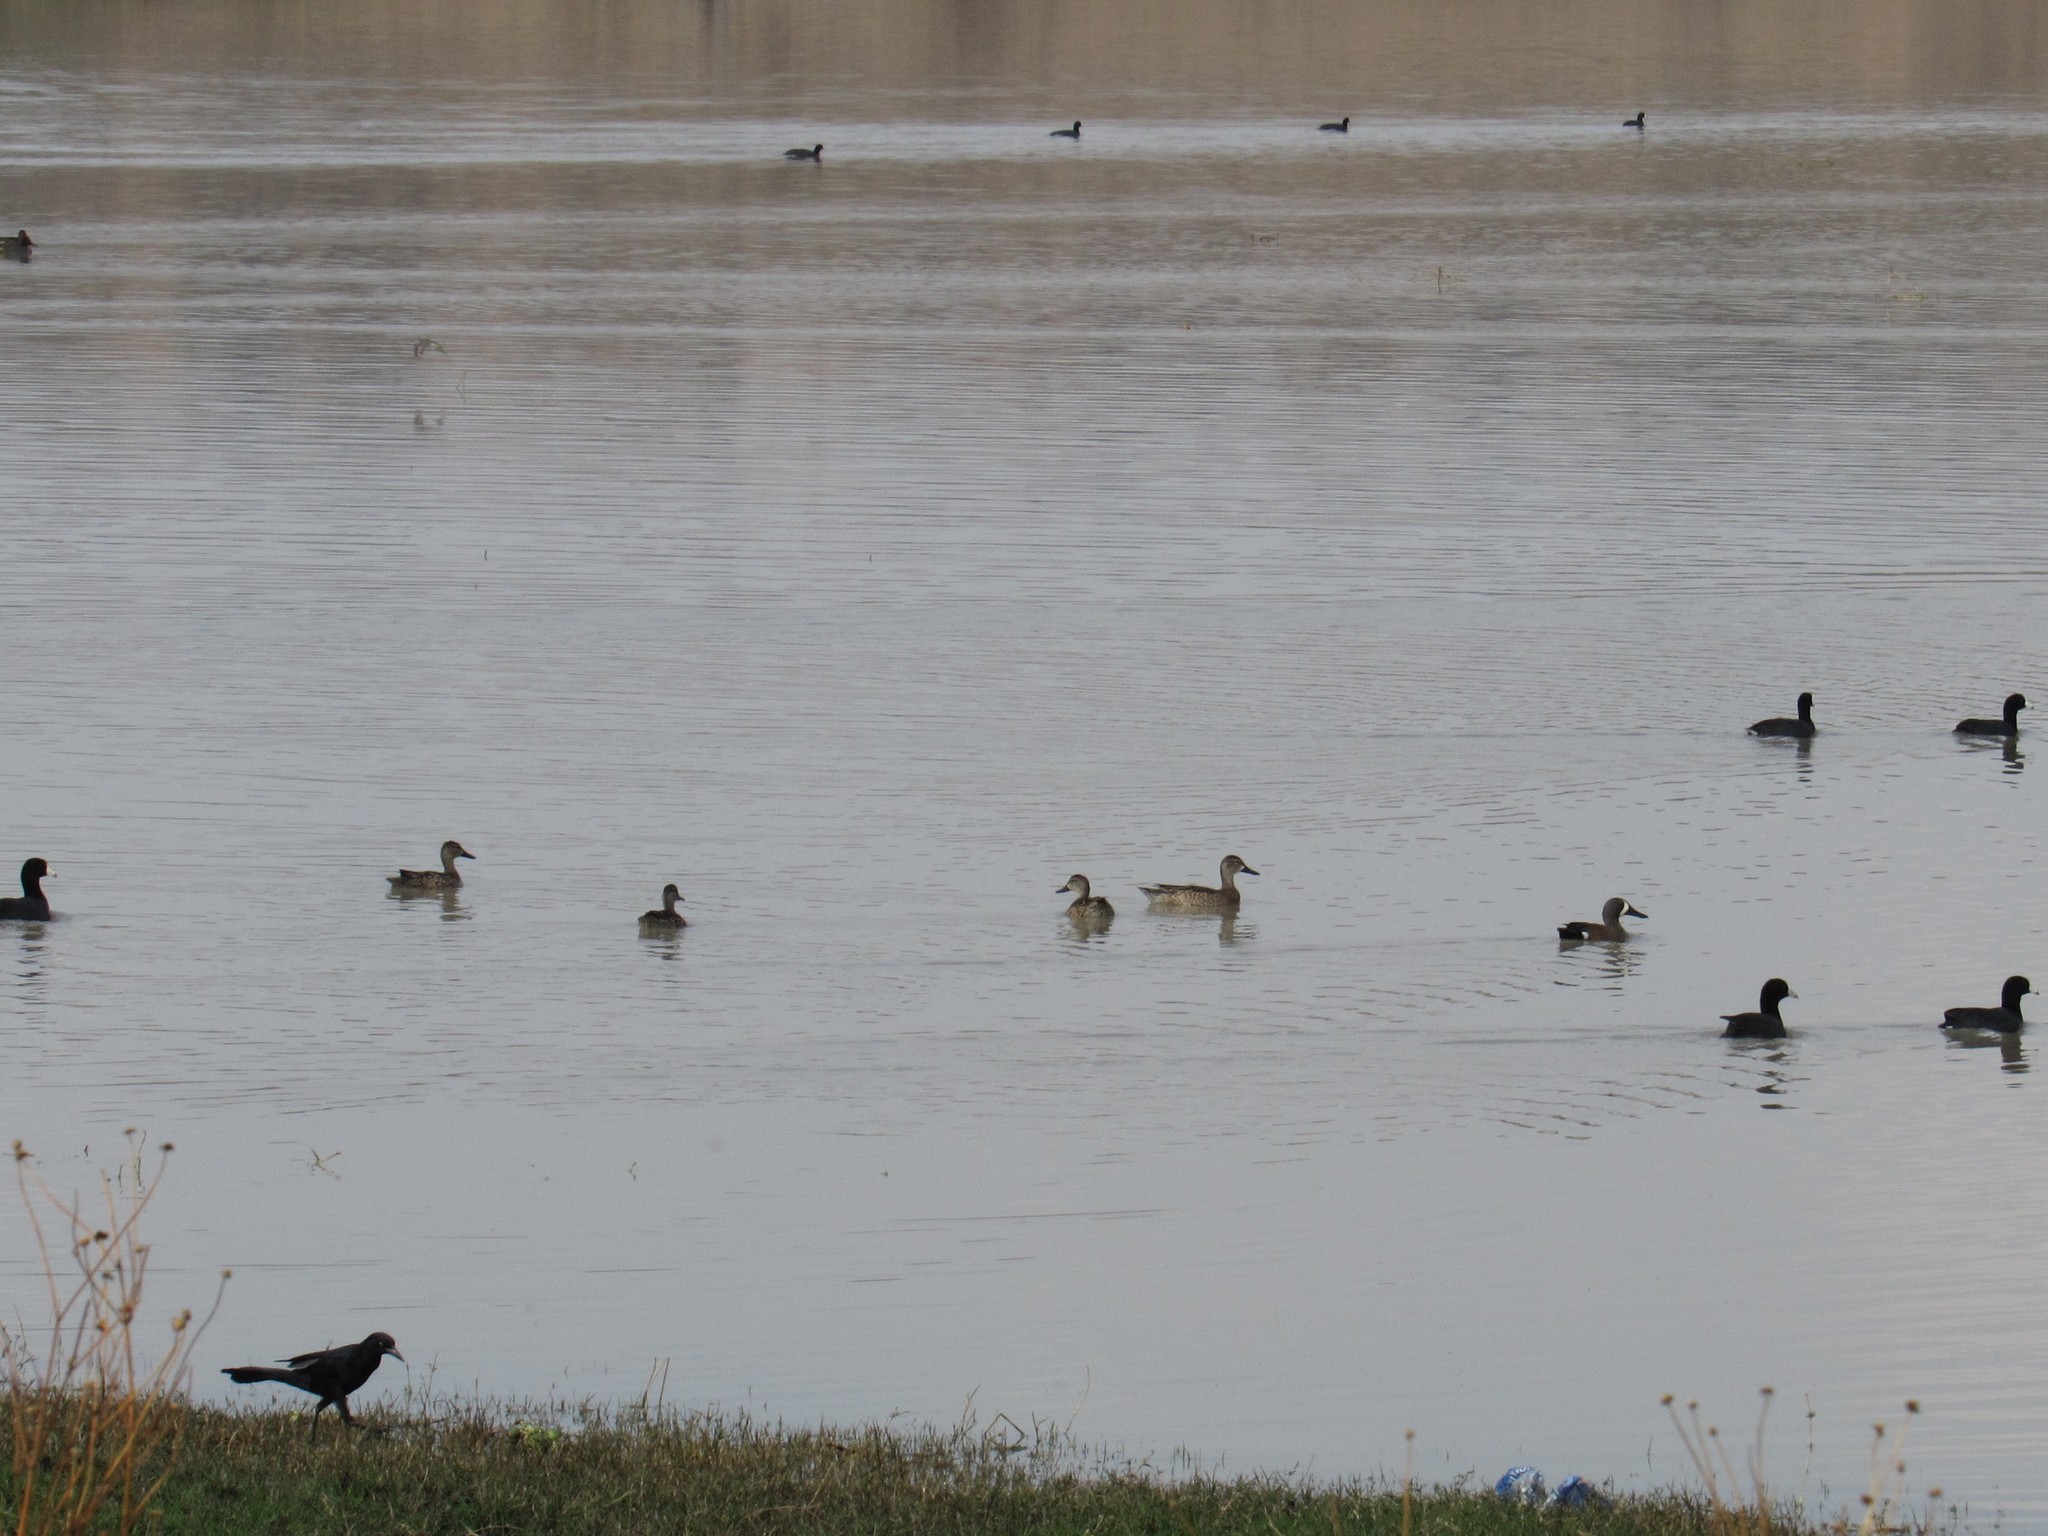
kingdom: Animalia
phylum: Chordata
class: Aves
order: Anseriformes
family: Anatidae
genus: Spatula
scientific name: Spatula discors
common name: Blue-winged teal
